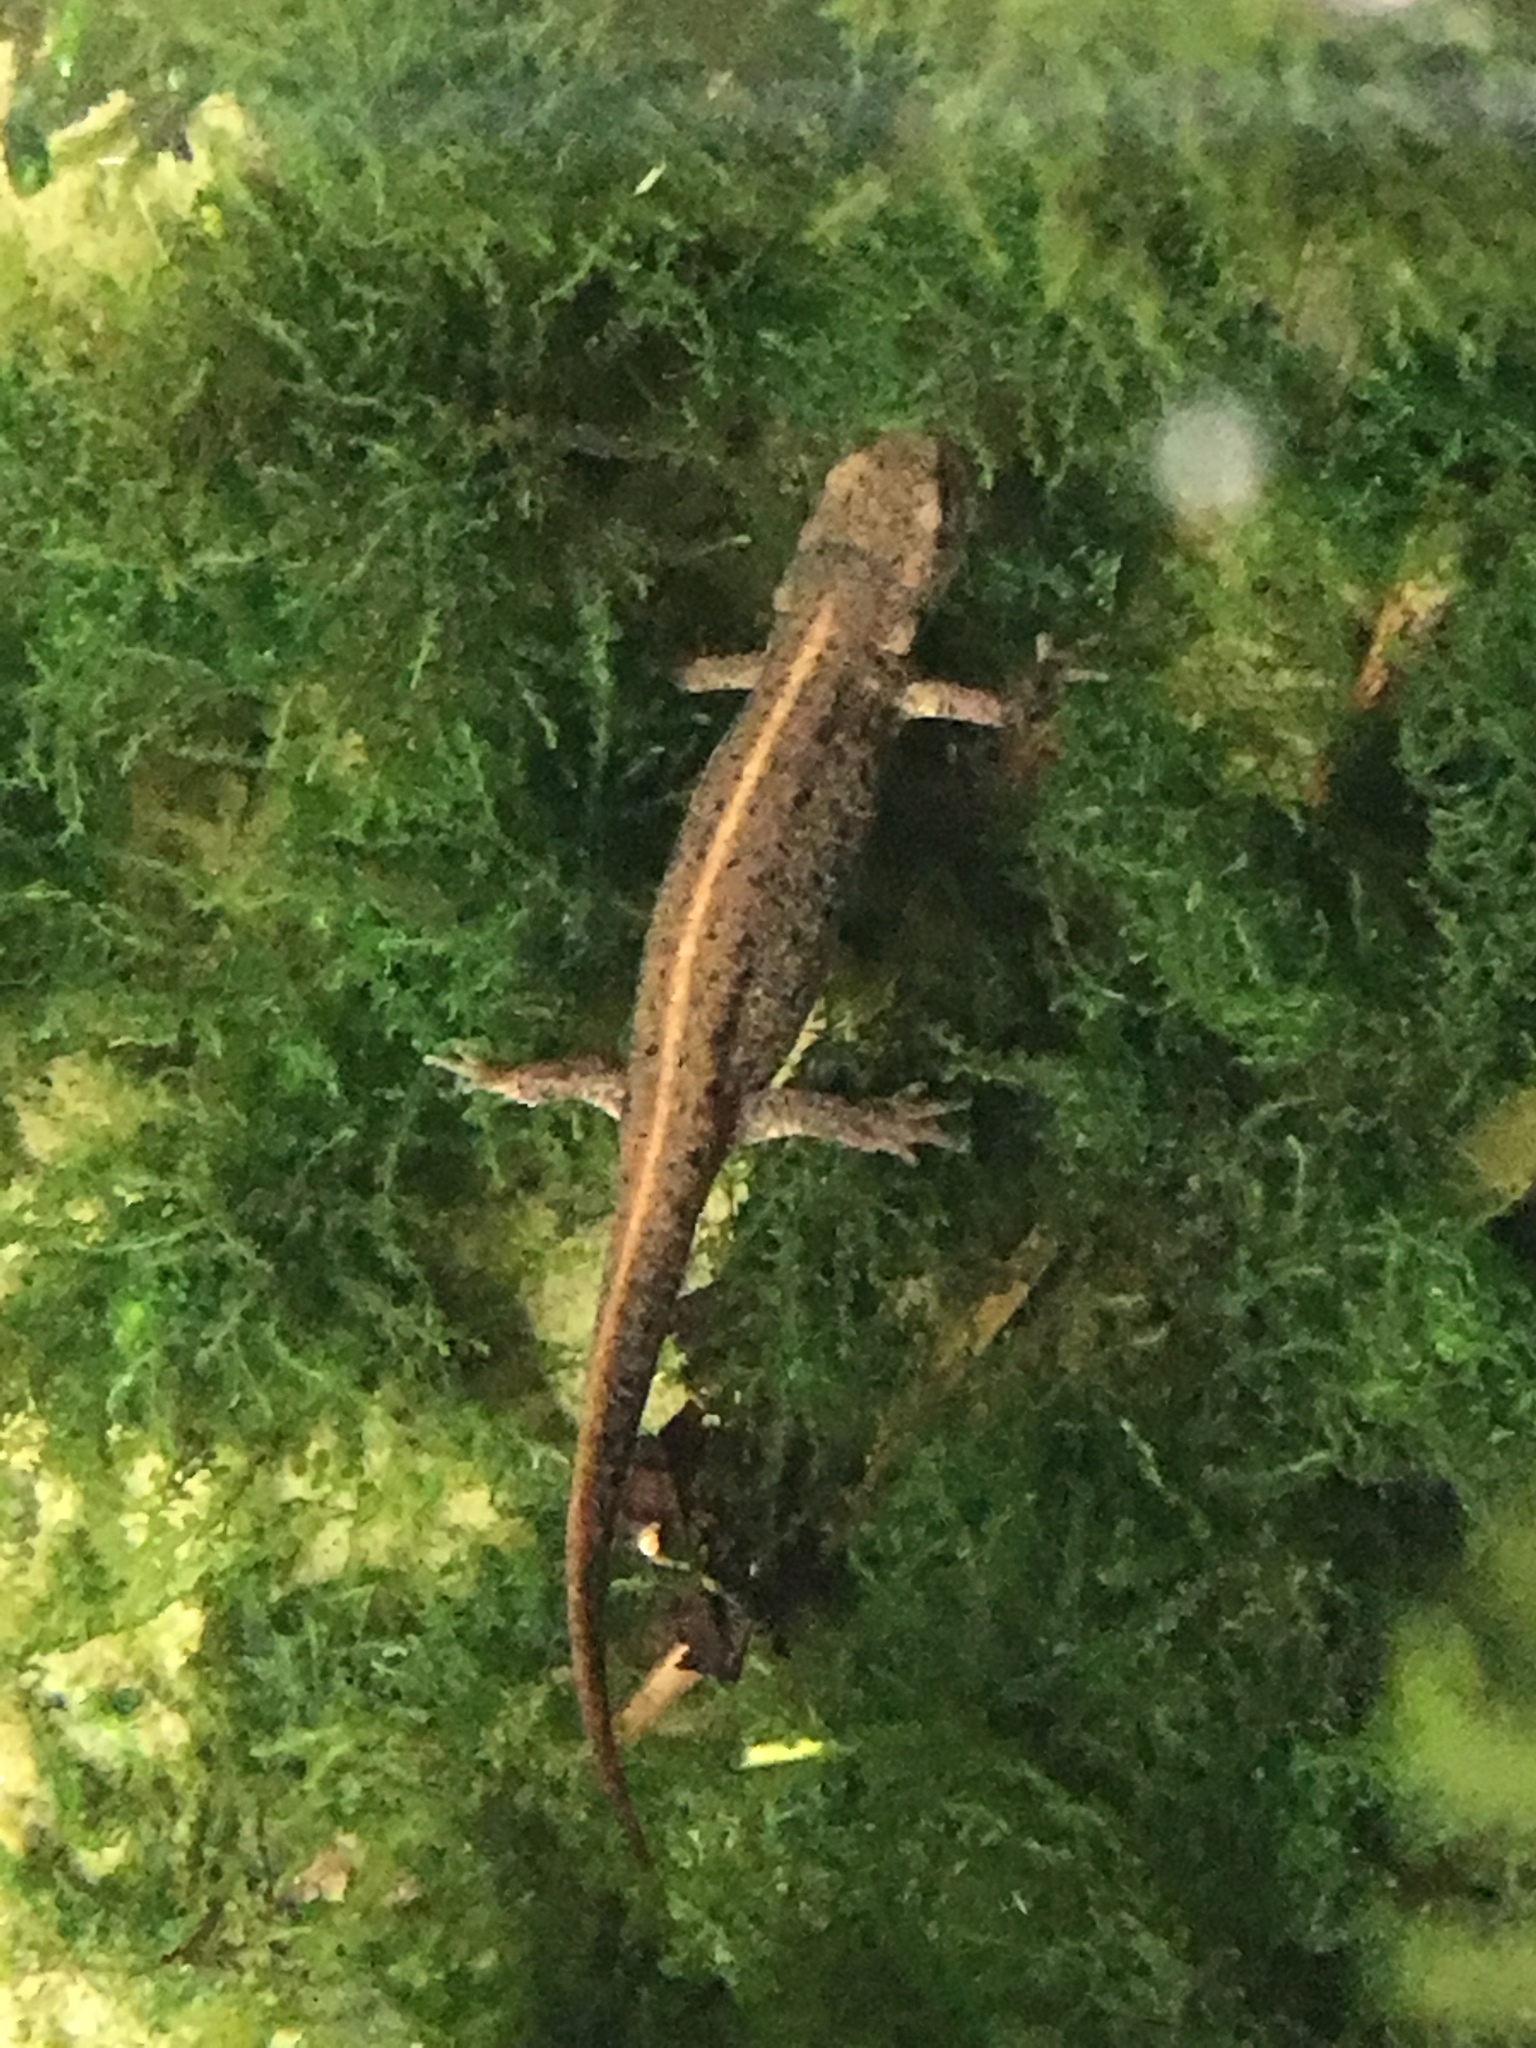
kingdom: Animalia
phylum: Chordata
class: Amphibia
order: Caudata
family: Salamandridae
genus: Lissotriton
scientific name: Lissotriton boscai
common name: Bosca's newt
